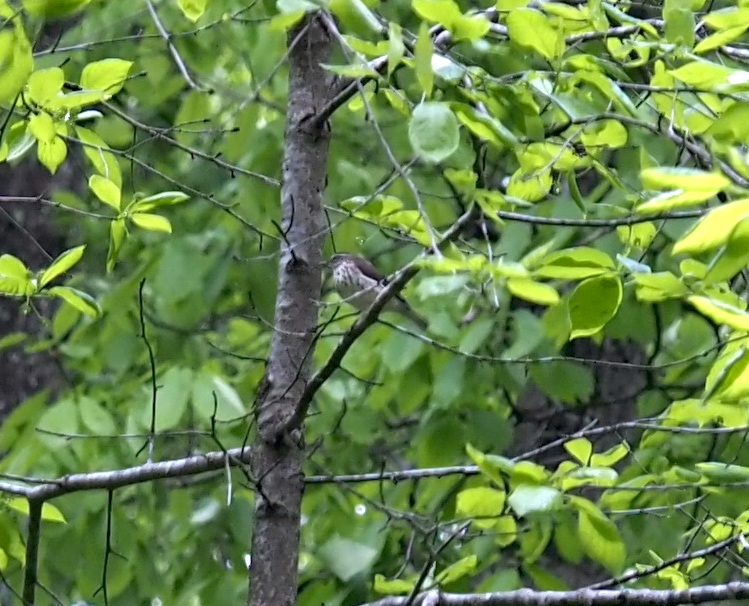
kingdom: Animalia
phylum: Chordata
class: Aves
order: Passeriformes
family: Parulidae
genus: Parkesia
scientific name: Parkesia motacilla
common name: Louisiana waterthrush
